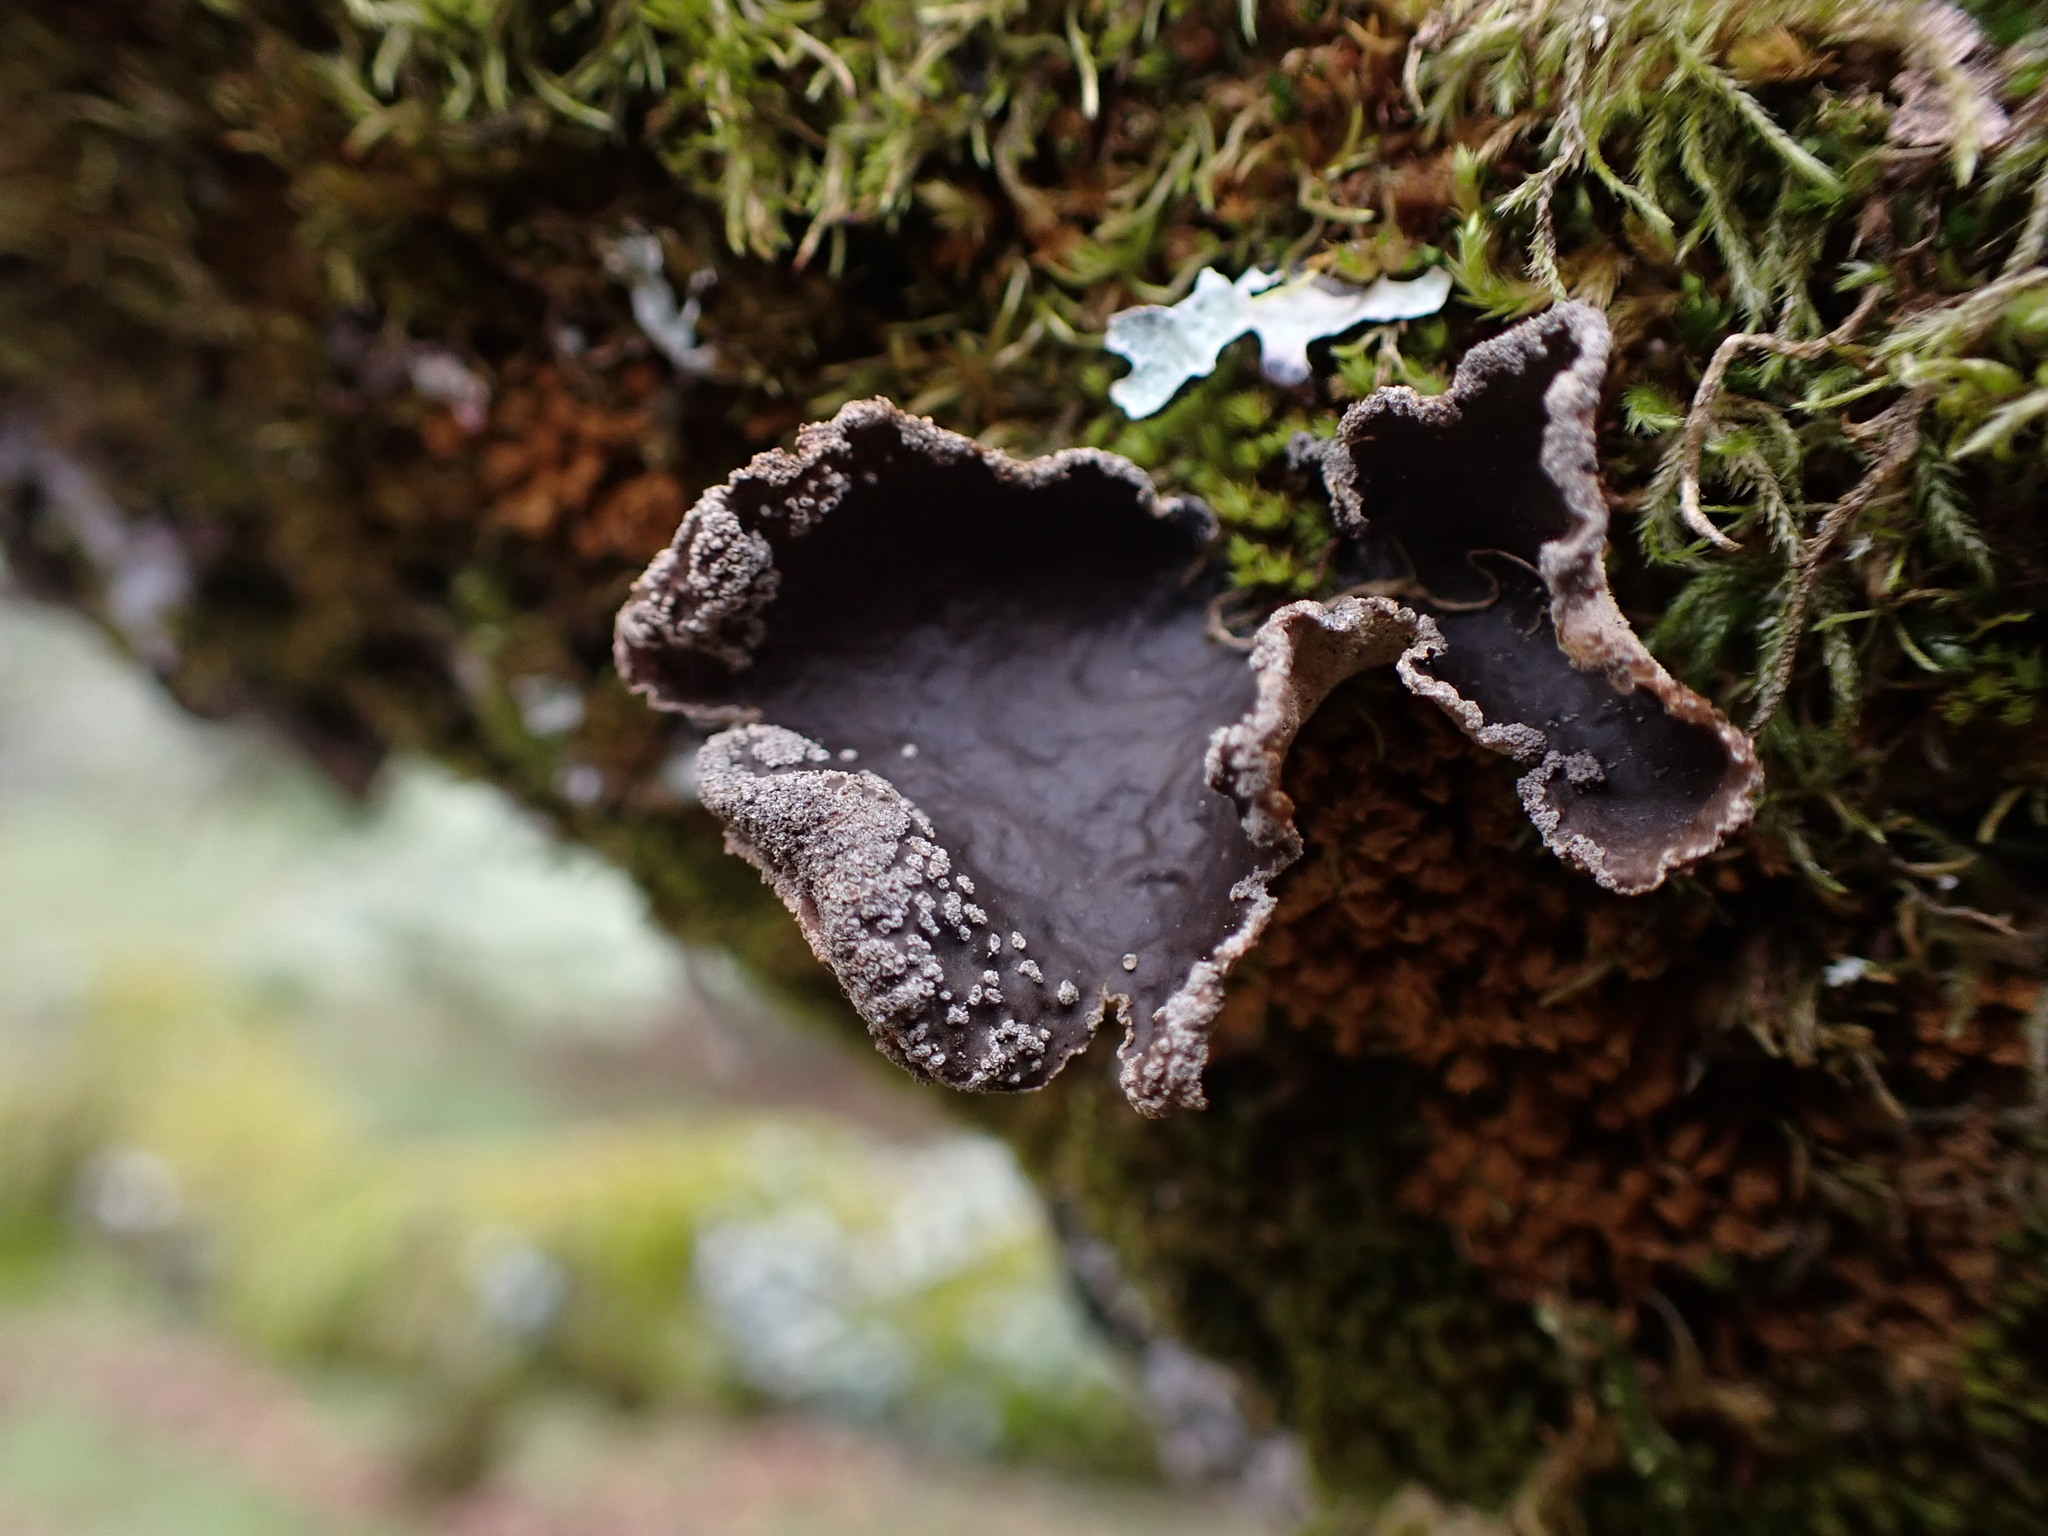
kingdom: Fungi
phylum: Ascomycota
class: Lecanoromycetes
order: Peltigerales
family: Lobariaceae
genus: Sticta
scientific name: Sticta limbata
